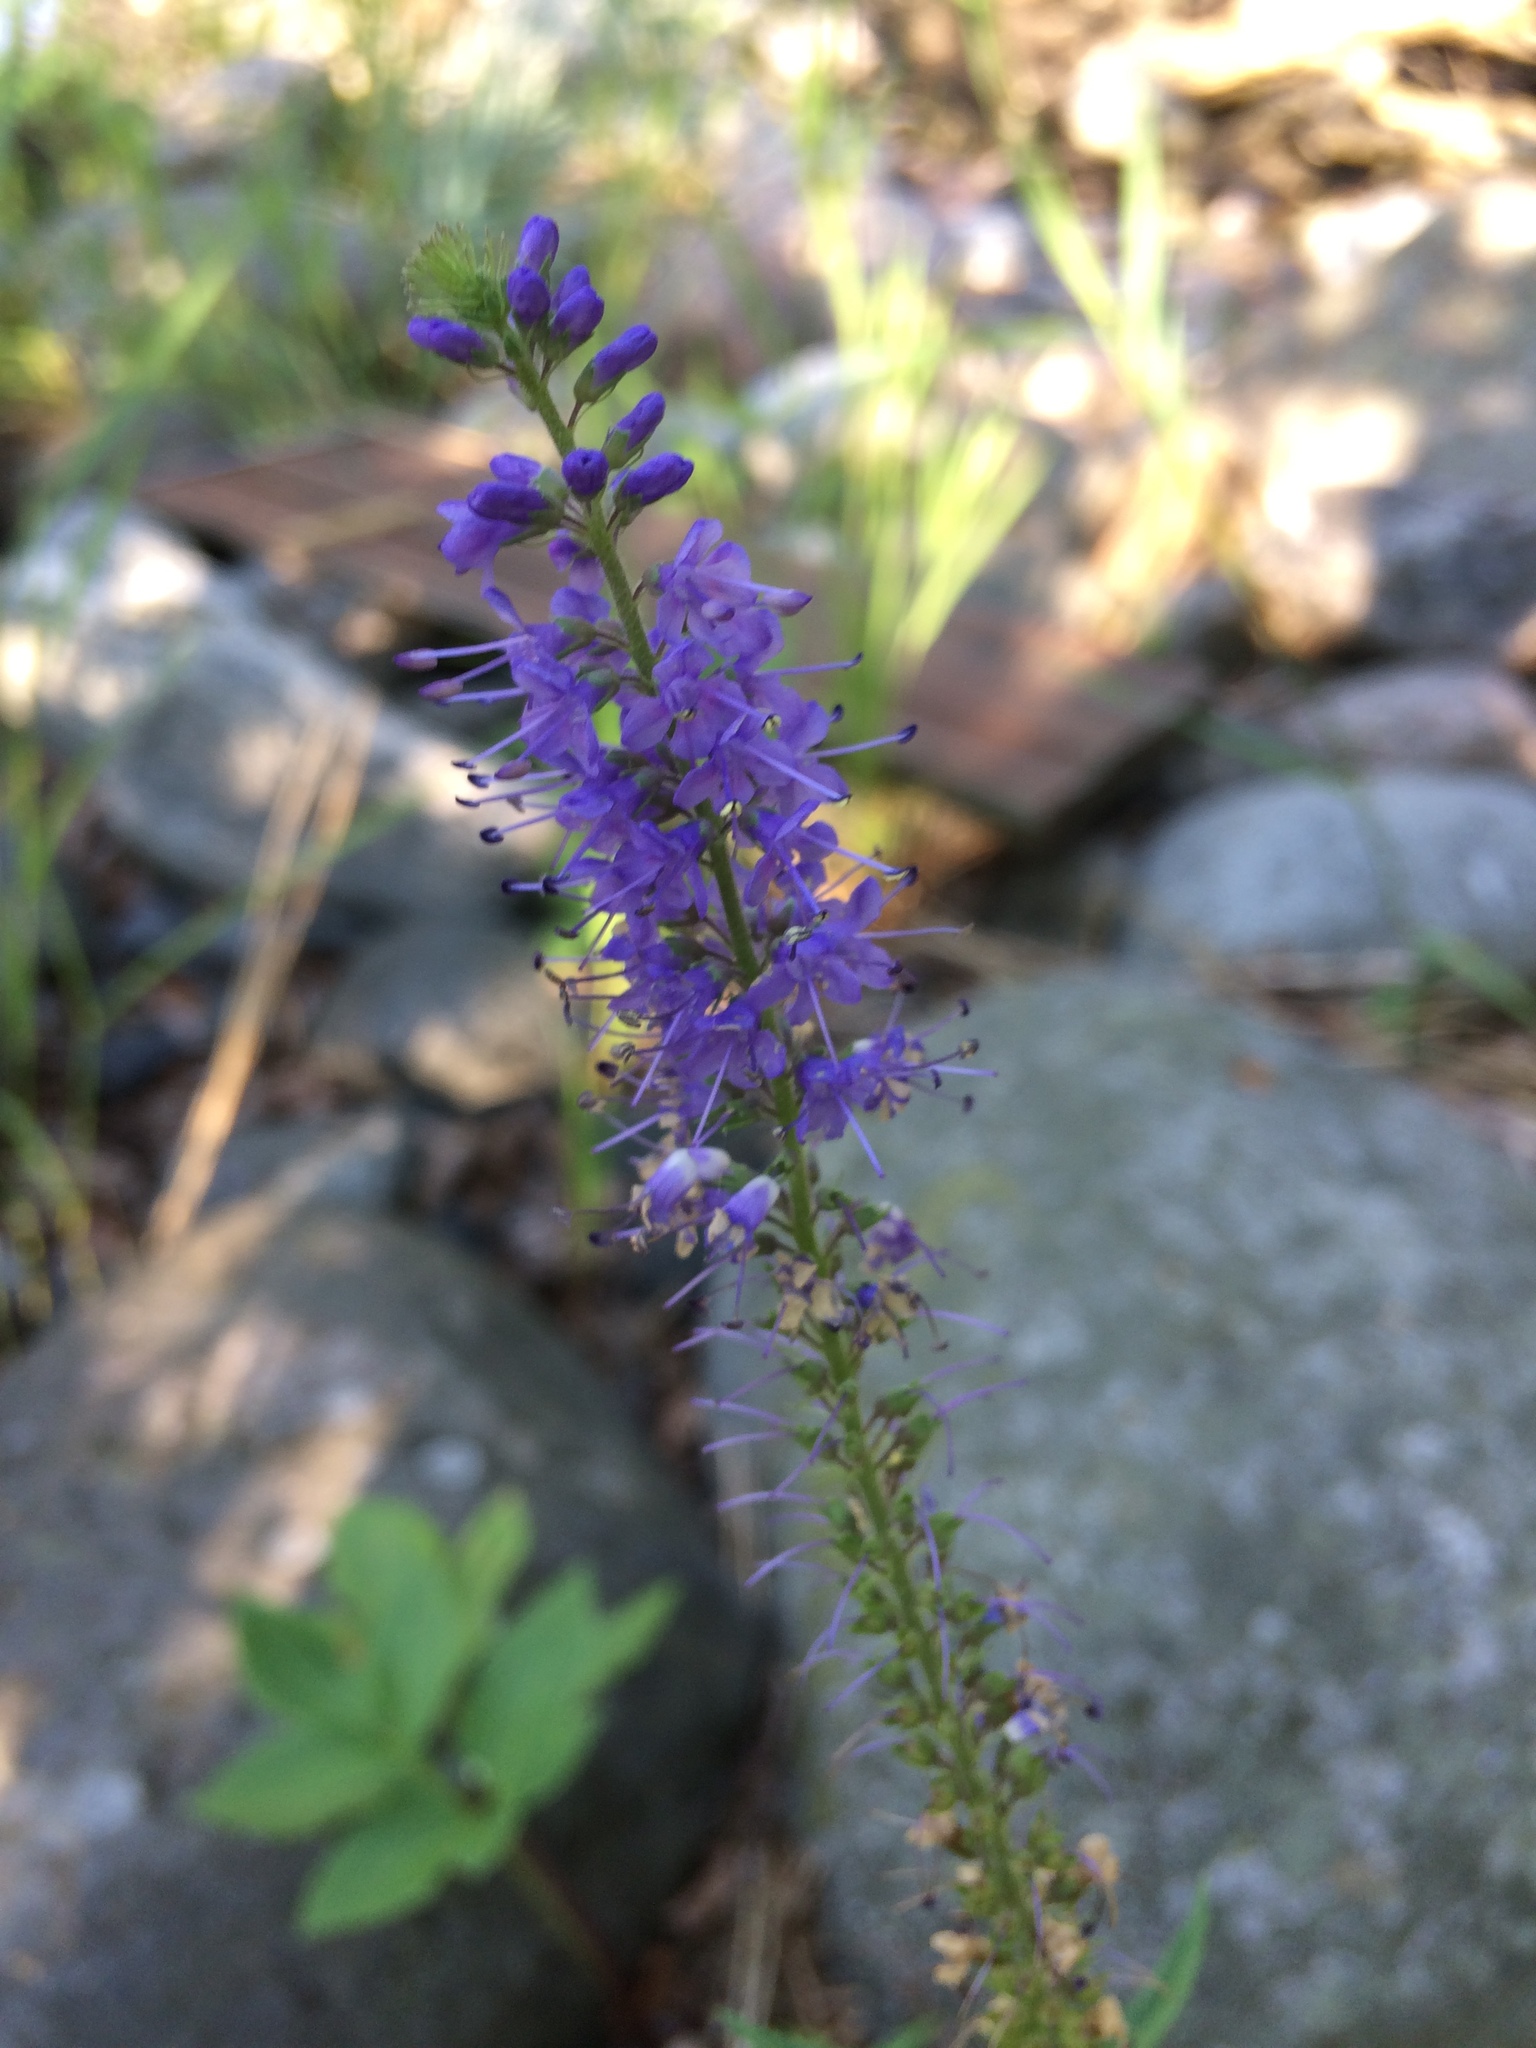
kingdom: Plantae
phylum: Tracheophyta
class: Magnoliopsida
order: Lamiales
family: Plantaginaceae
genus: Veronica
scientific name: Veronica longifolia
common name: Garden speedwell
